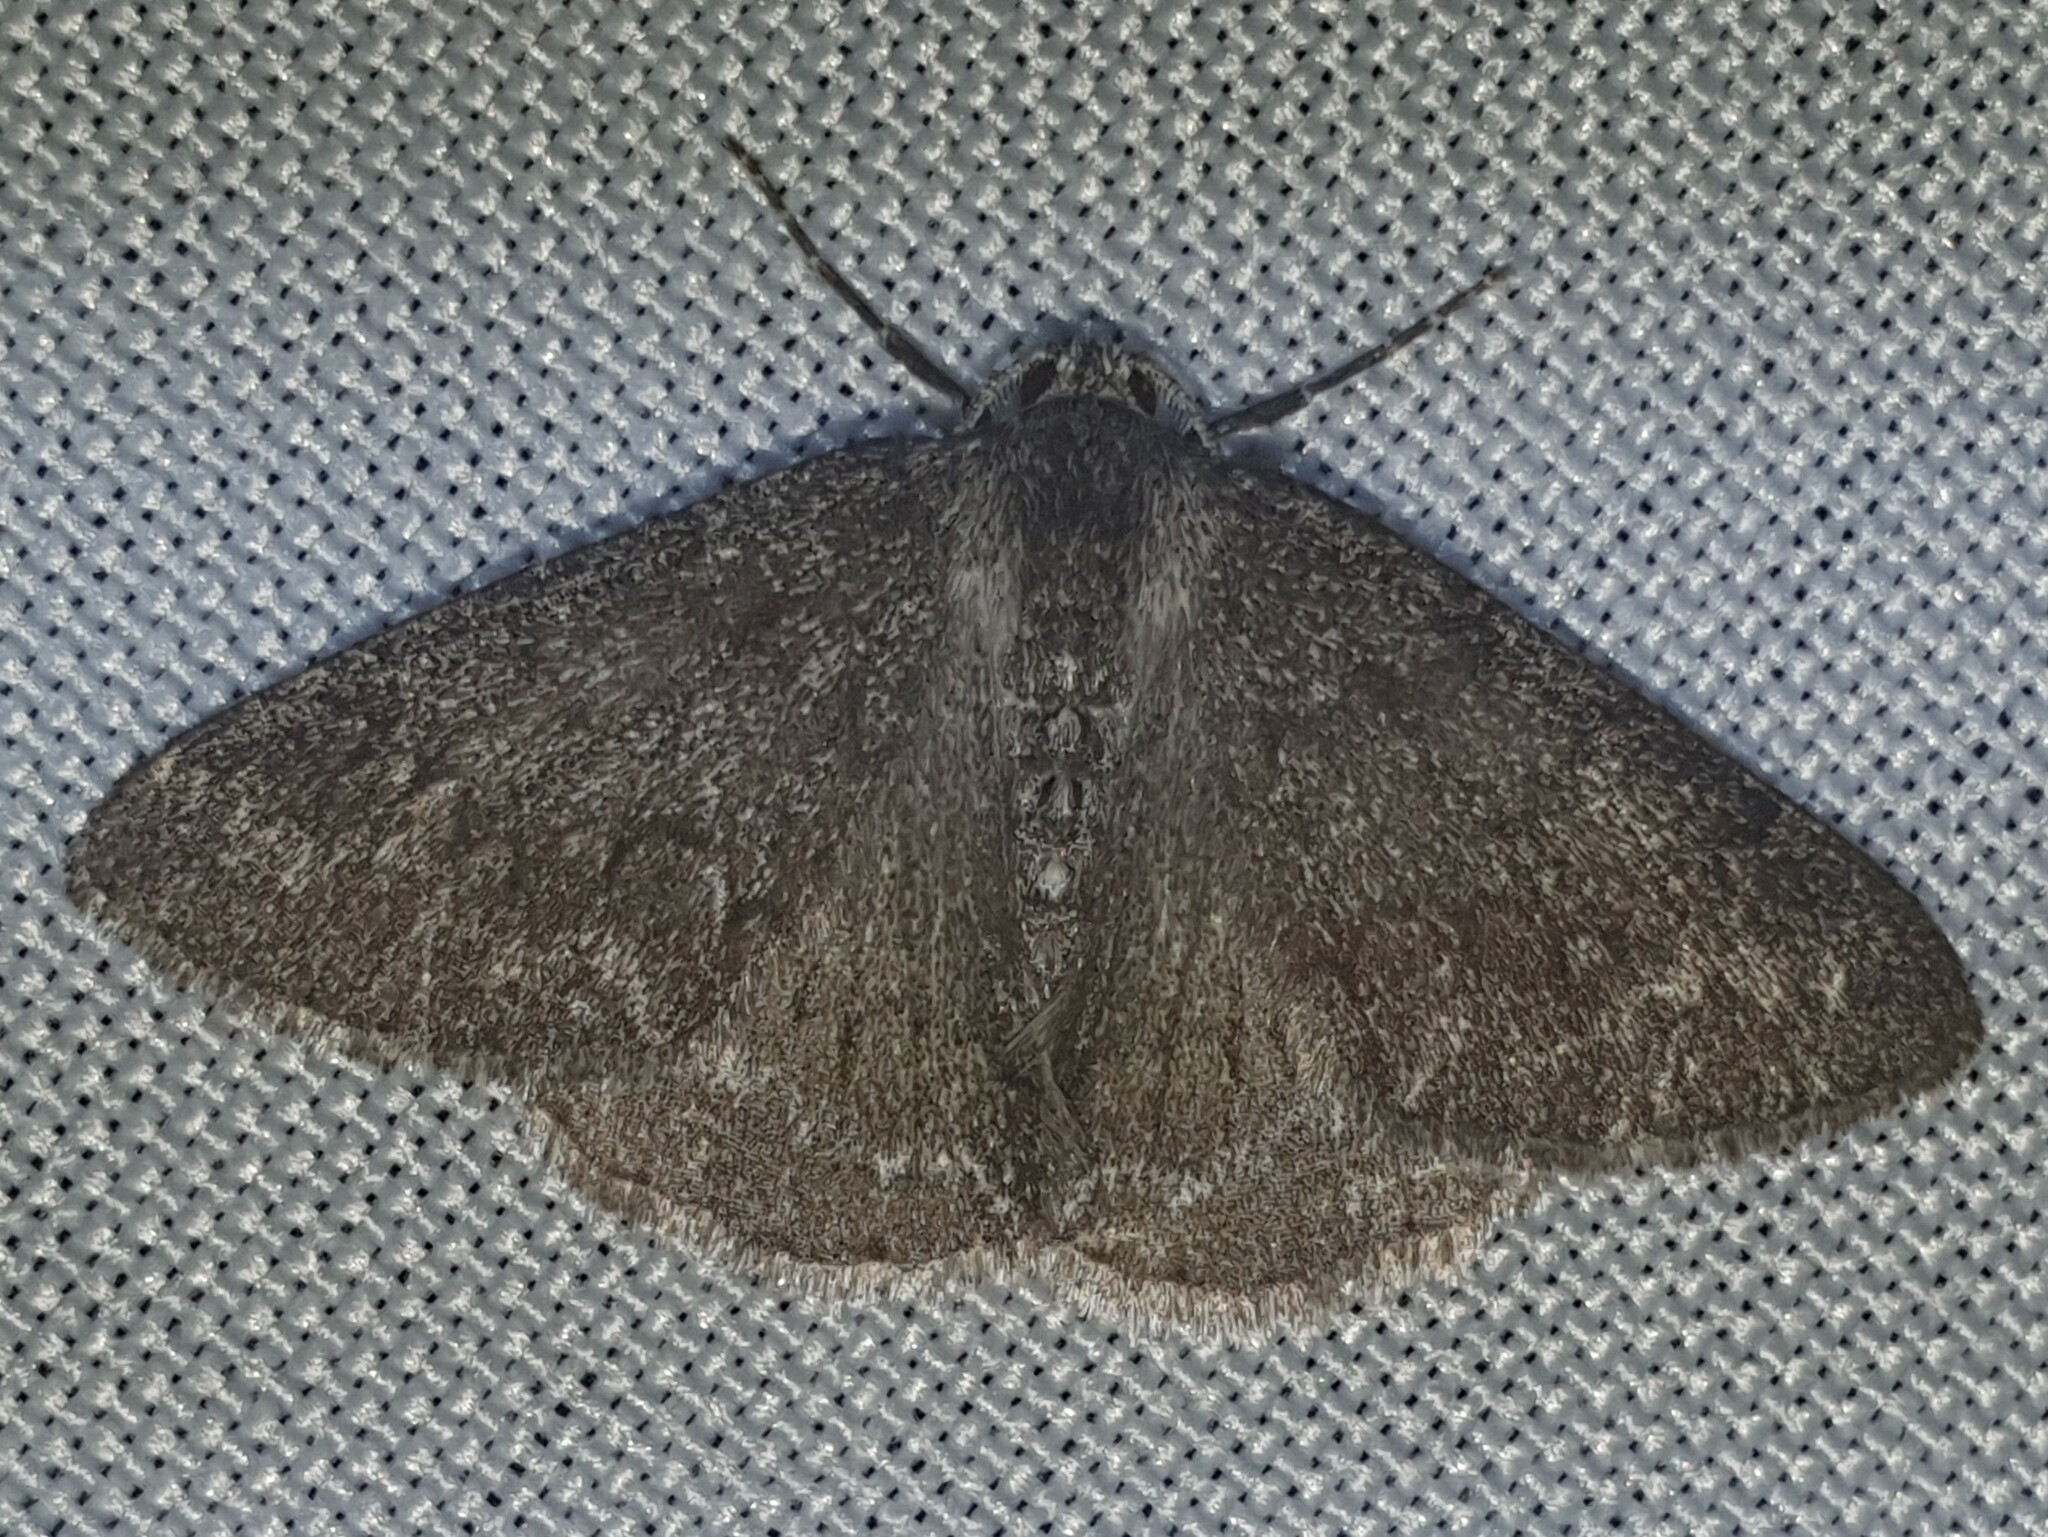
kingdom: Animalia
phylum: Arthropoda
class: Insecta
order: Lepidoptera
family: Geometridae
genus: Pseudoterpna
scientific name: Pseudoterpna coronillaria
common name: Jersey emerald
